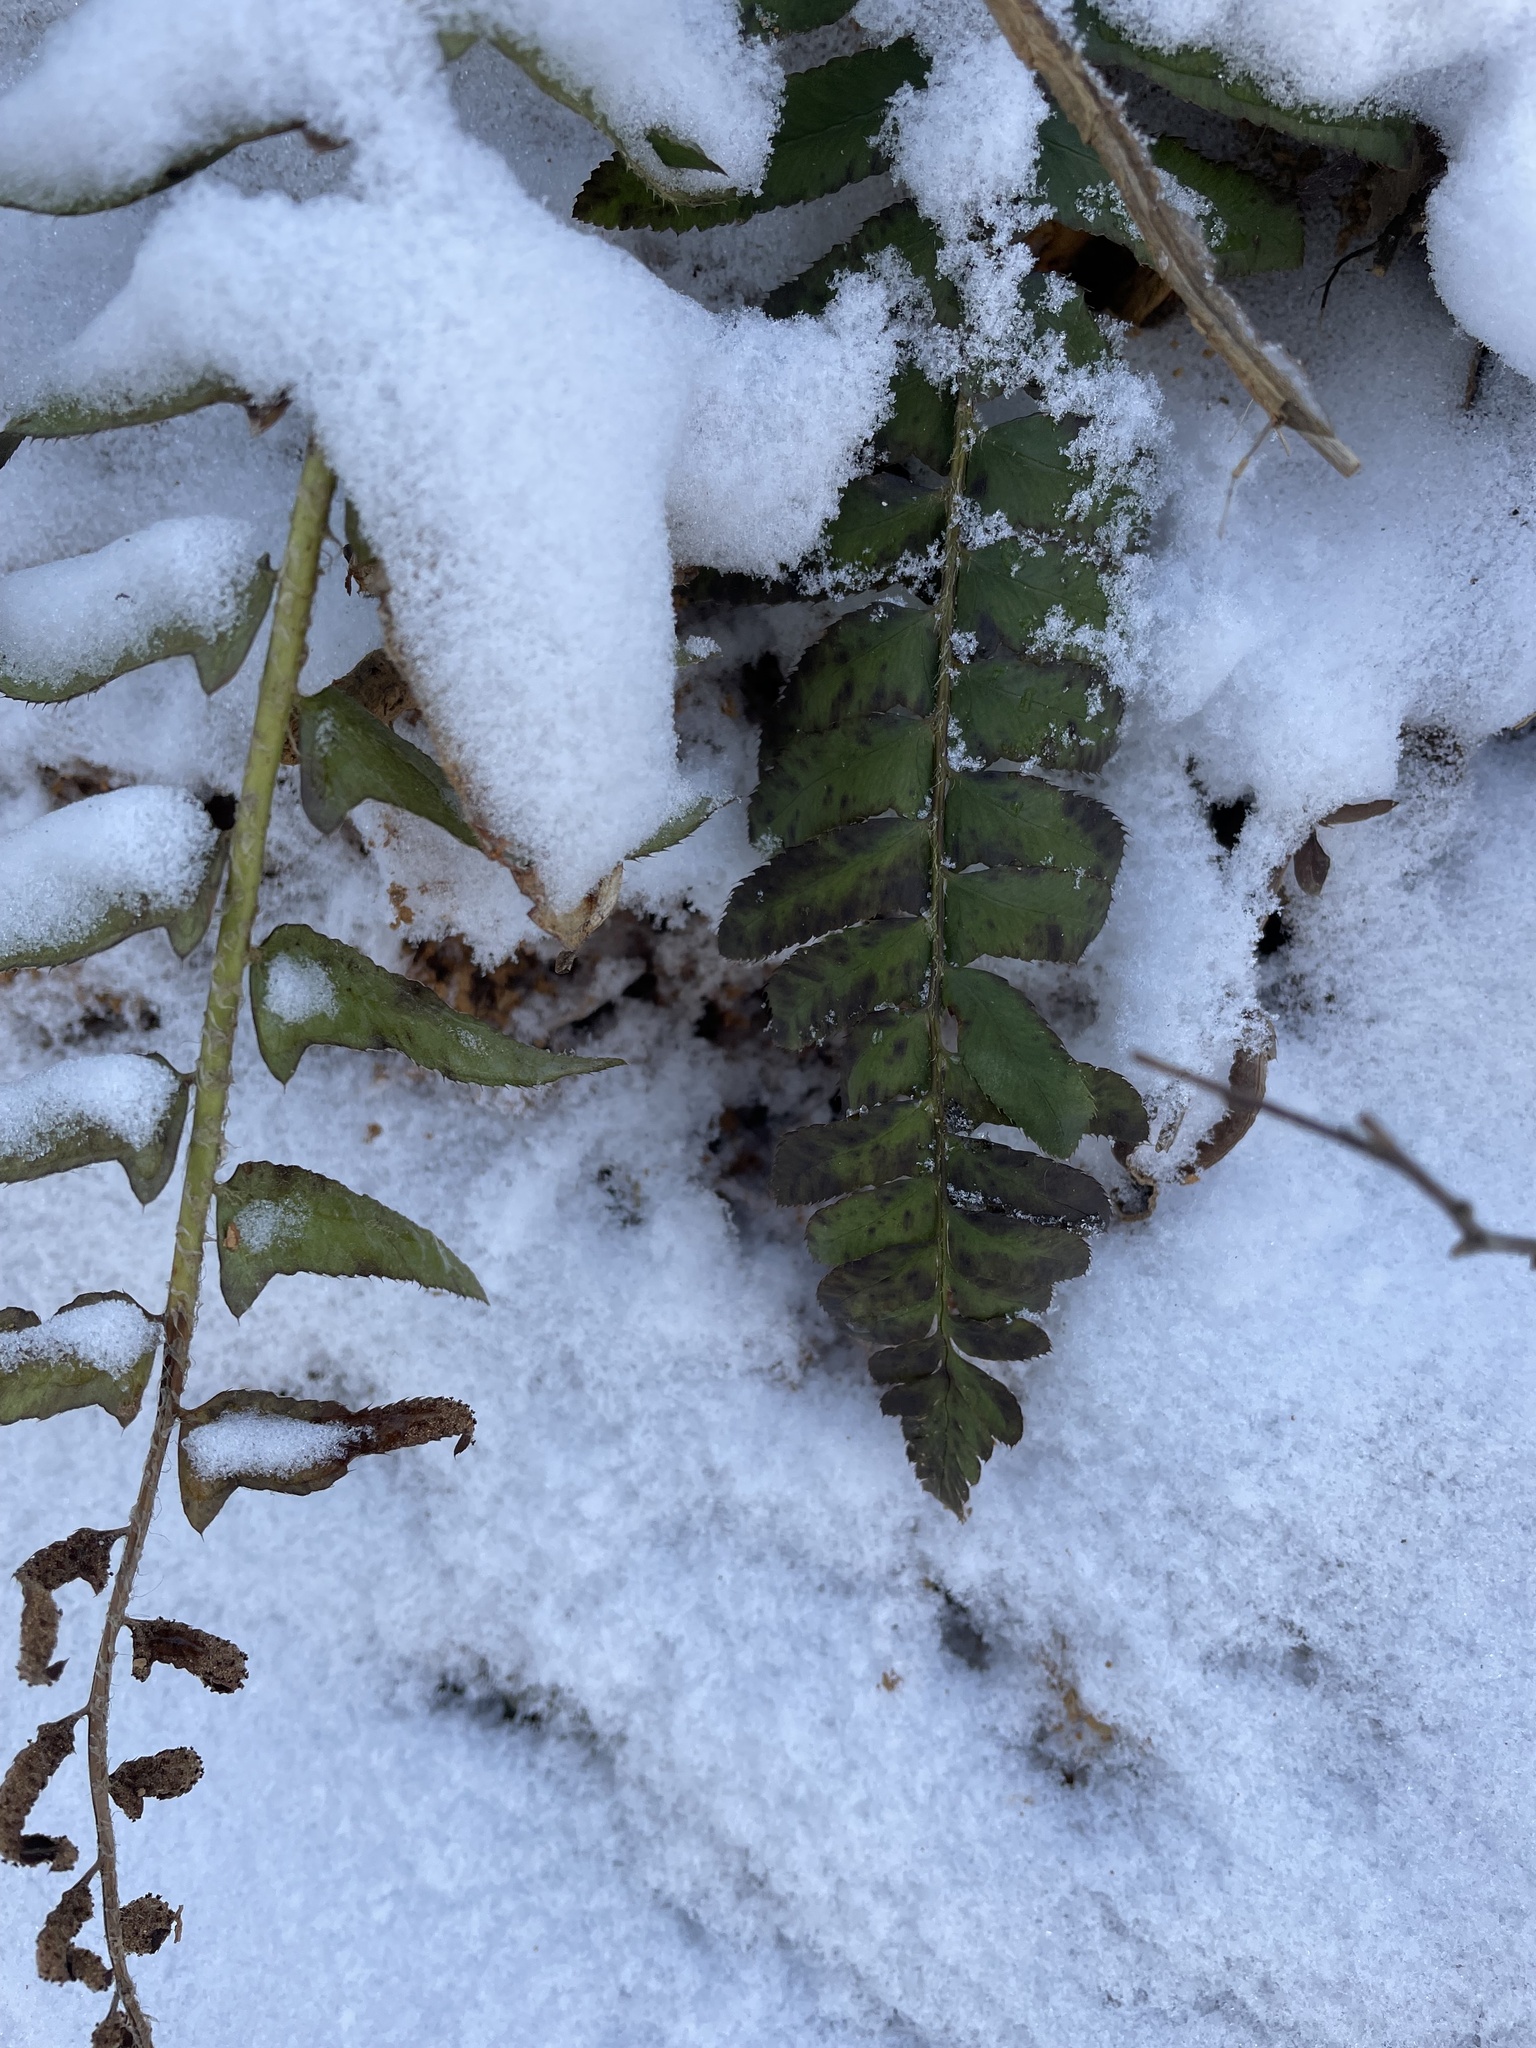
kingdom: Plantae
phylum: Tracheophyta
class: Polypodiopsida
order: Polypodiales
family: Dryopteridaceae
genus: Polystichum
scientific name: Polystichum acrostichoides
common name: Christmas fern
